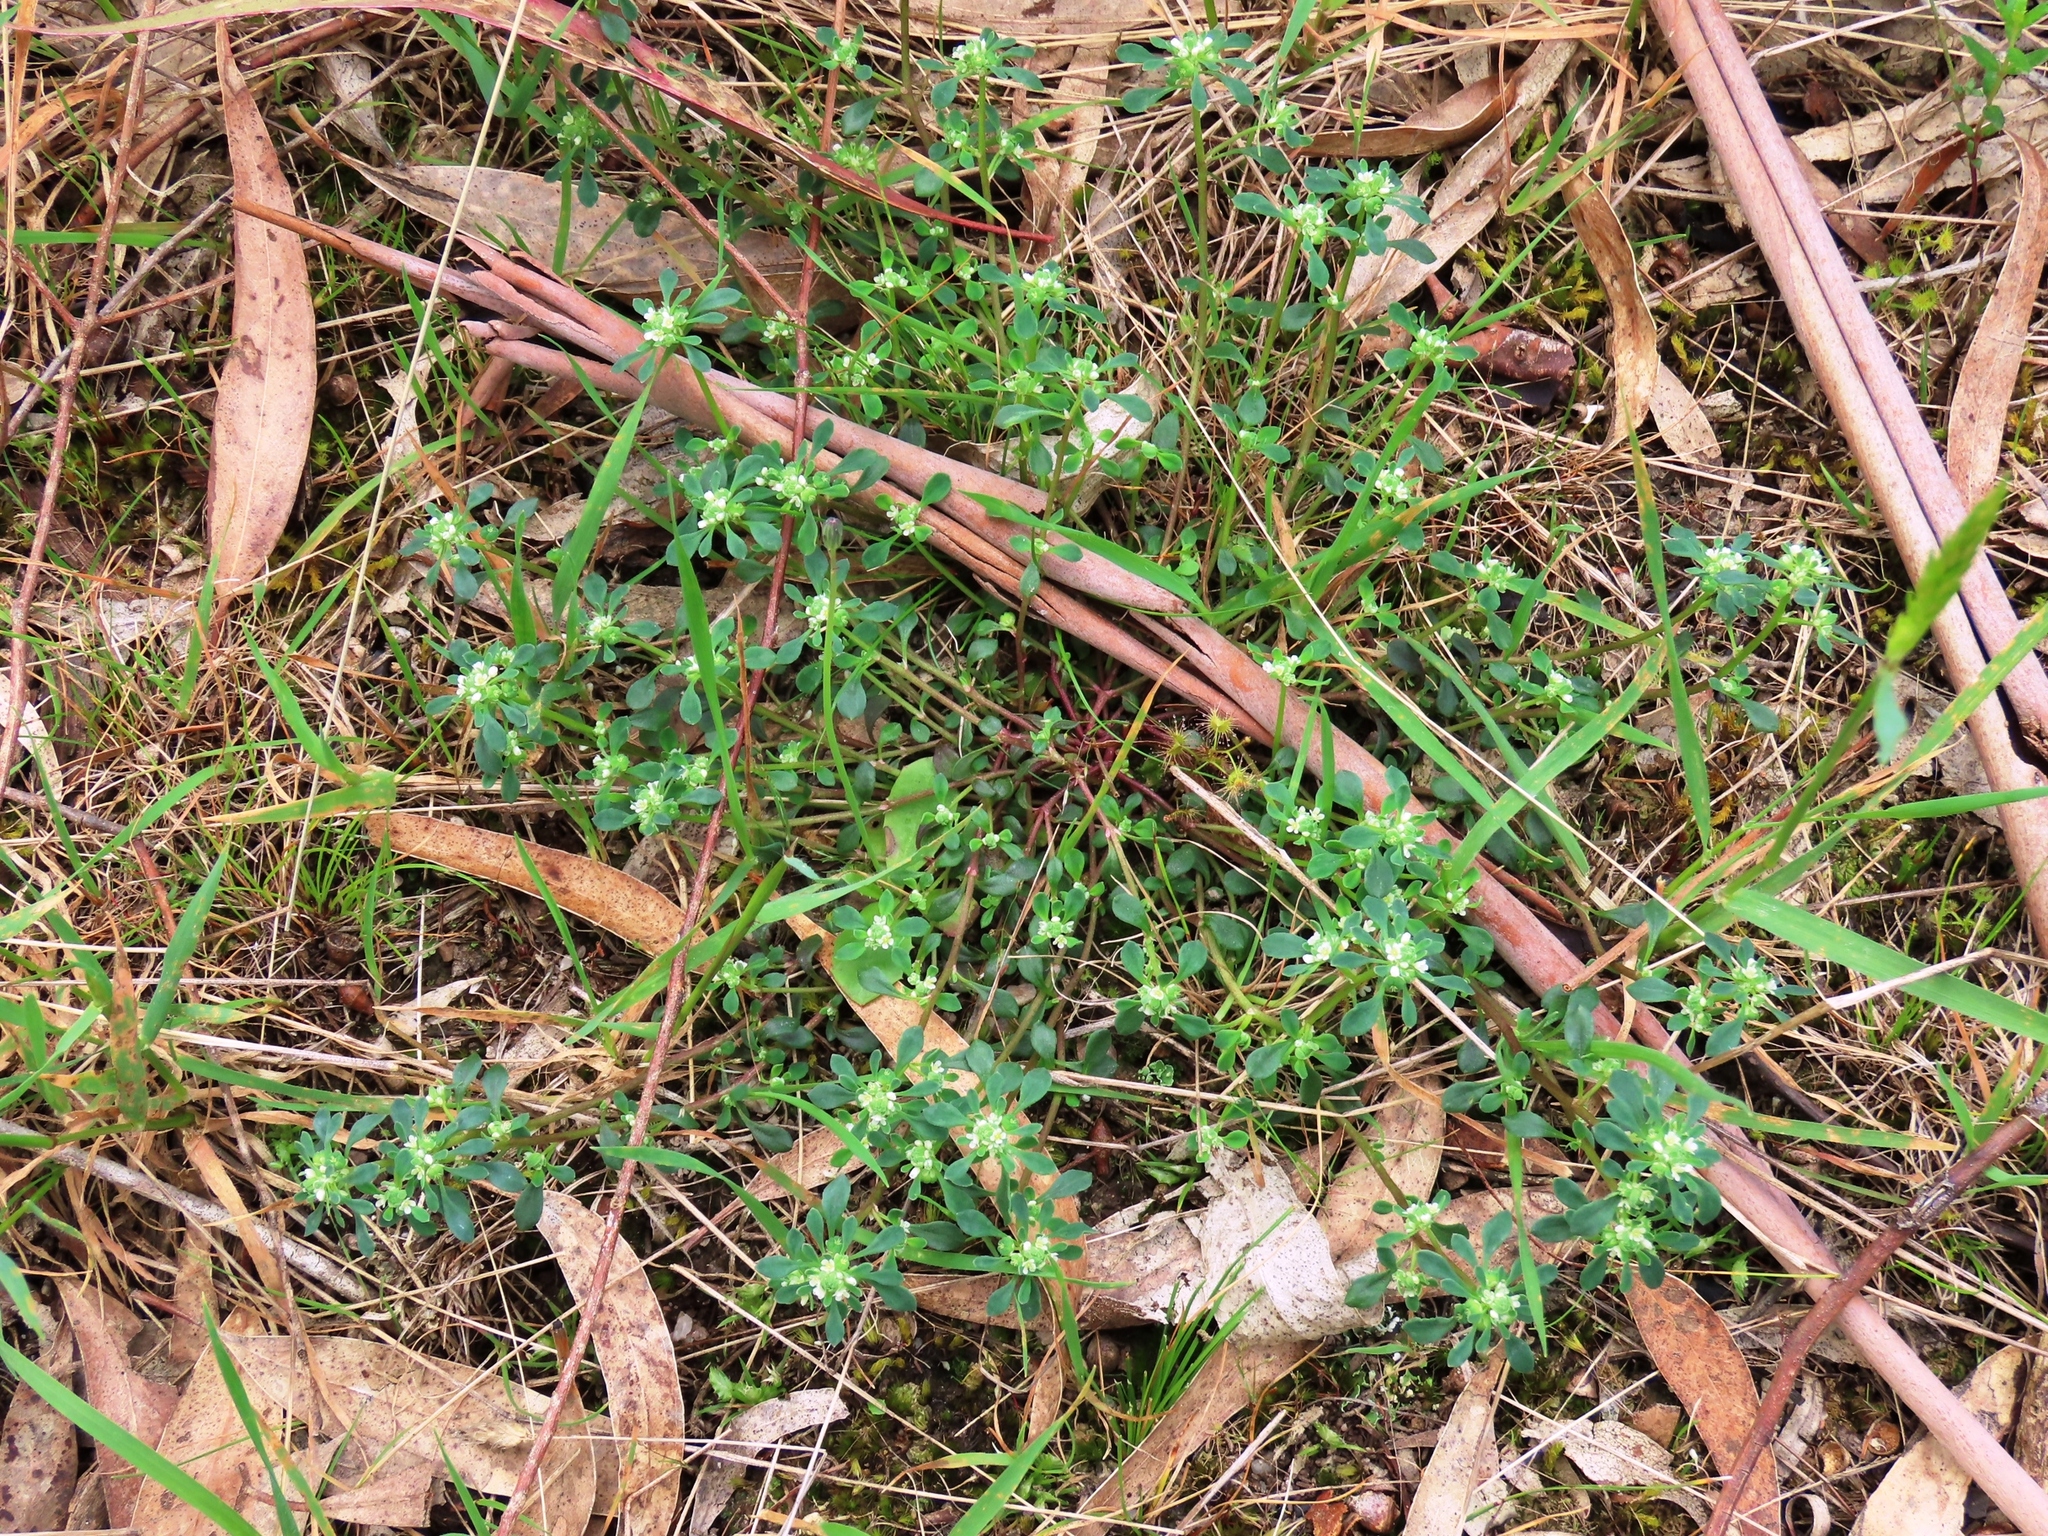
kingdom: Plantae
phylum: Tracheophyta
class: Magnoliopsida
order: Malpighiales
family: Phyllanthaceae
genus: Poranthera
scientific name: Poranthera microphylla
